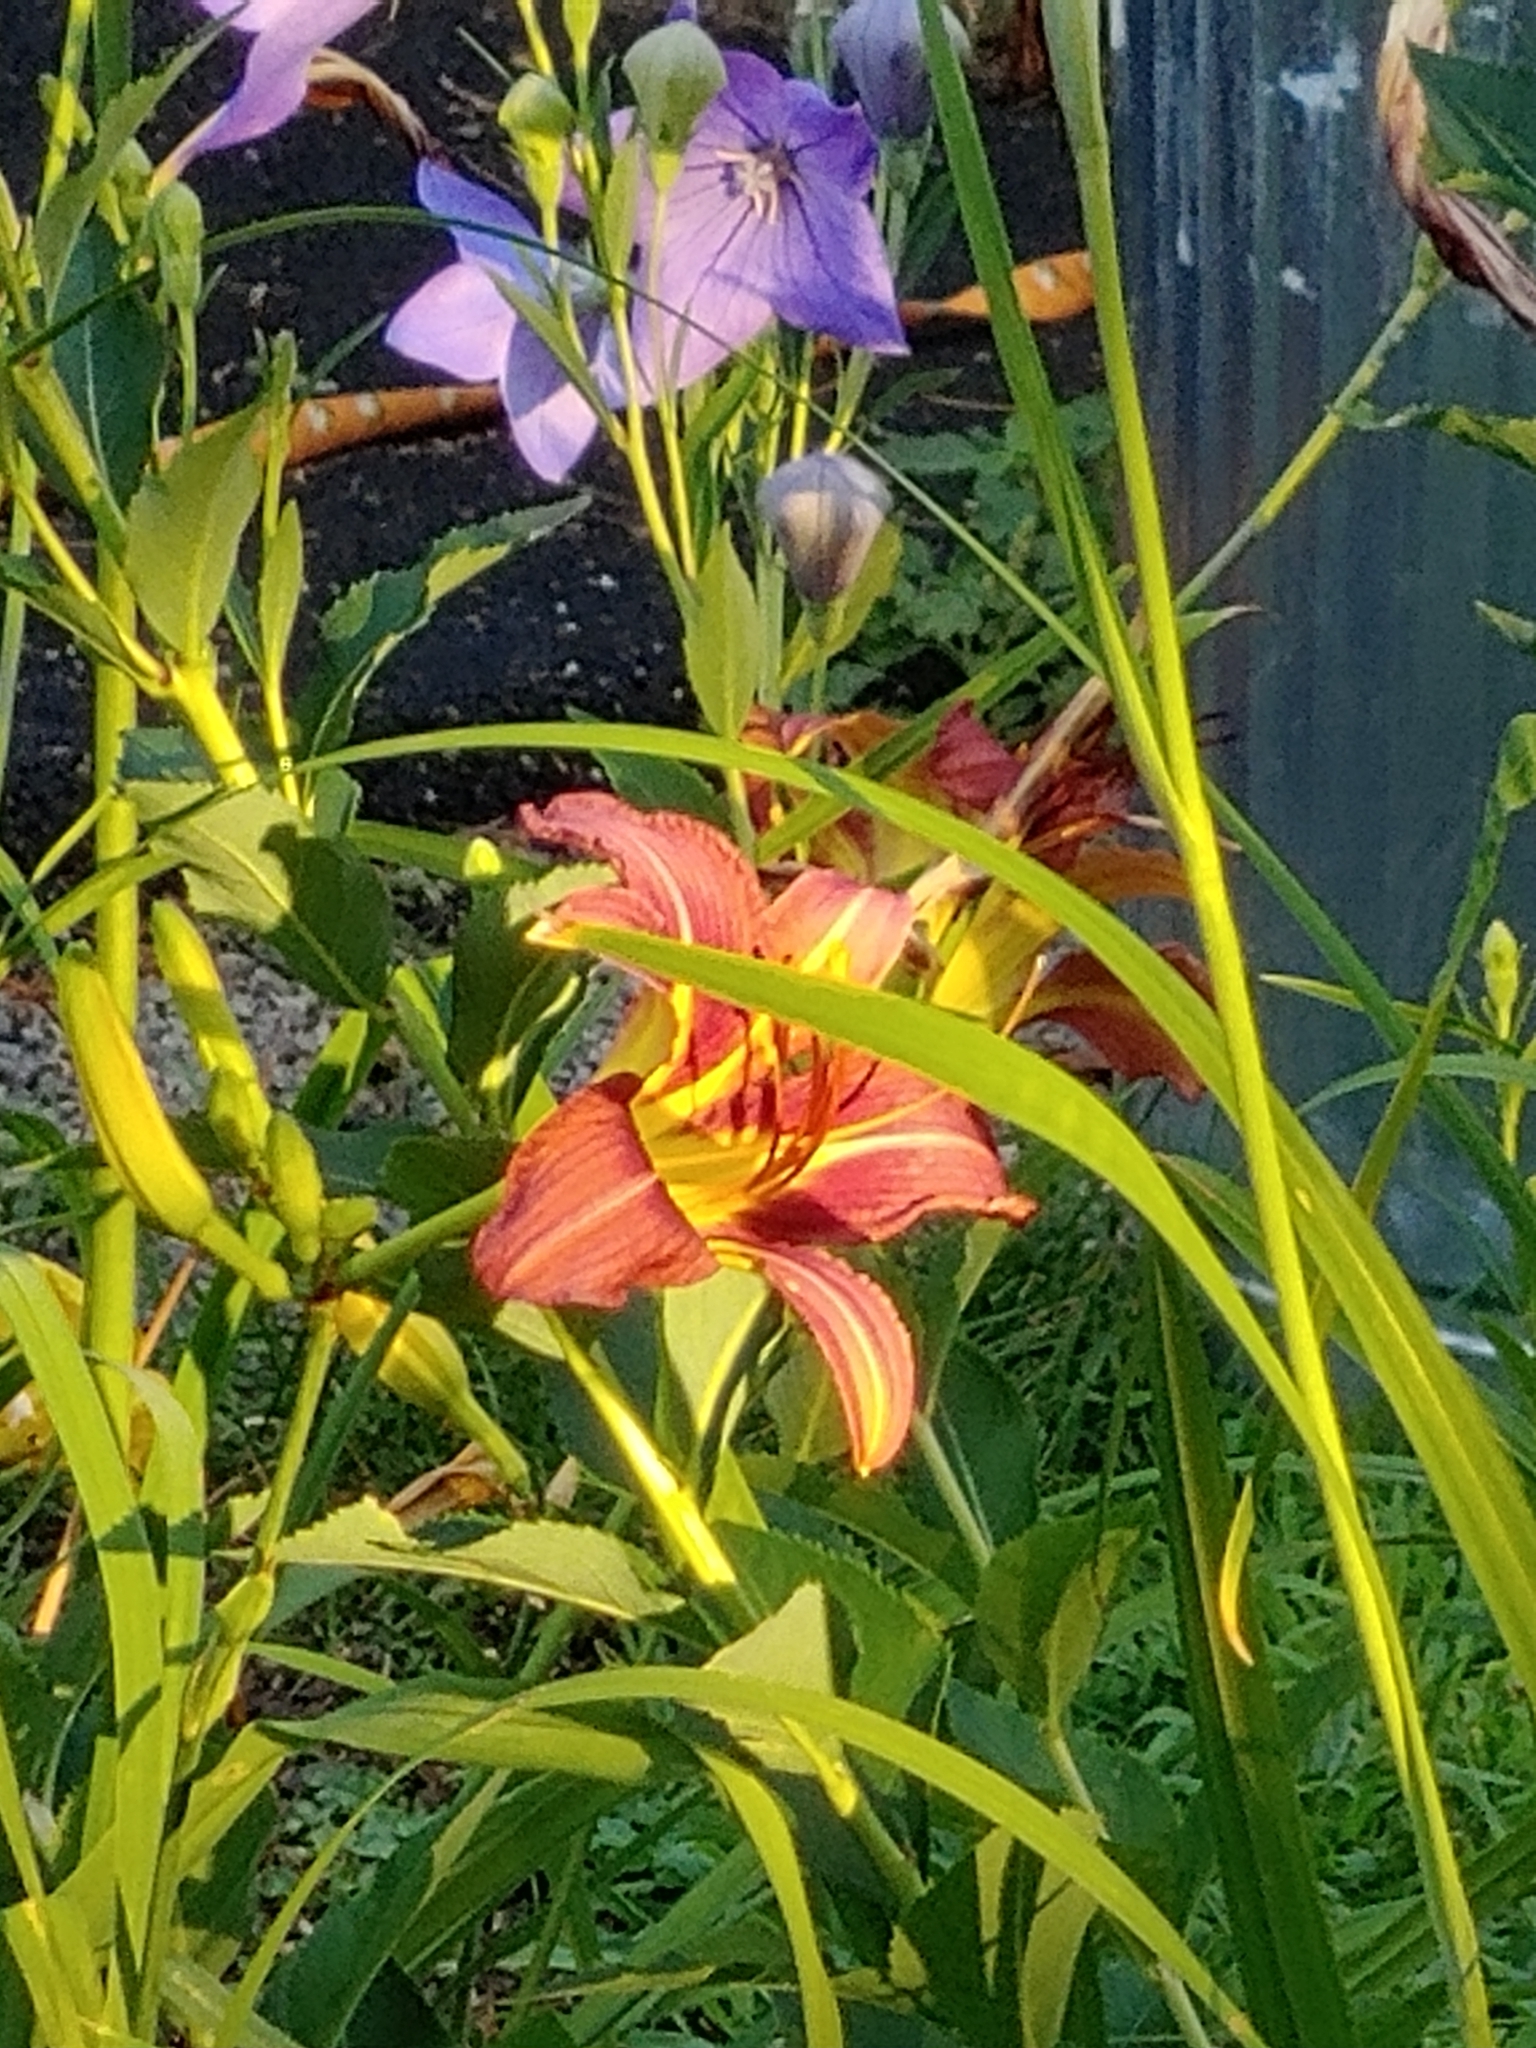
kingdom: Plantae
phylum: Tracheophyta
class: Liliopsida
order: Asparagales
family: Asphodelaceae
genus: Hemerocallis
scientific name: Hemerocallis fulva
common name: Orange day-lily
